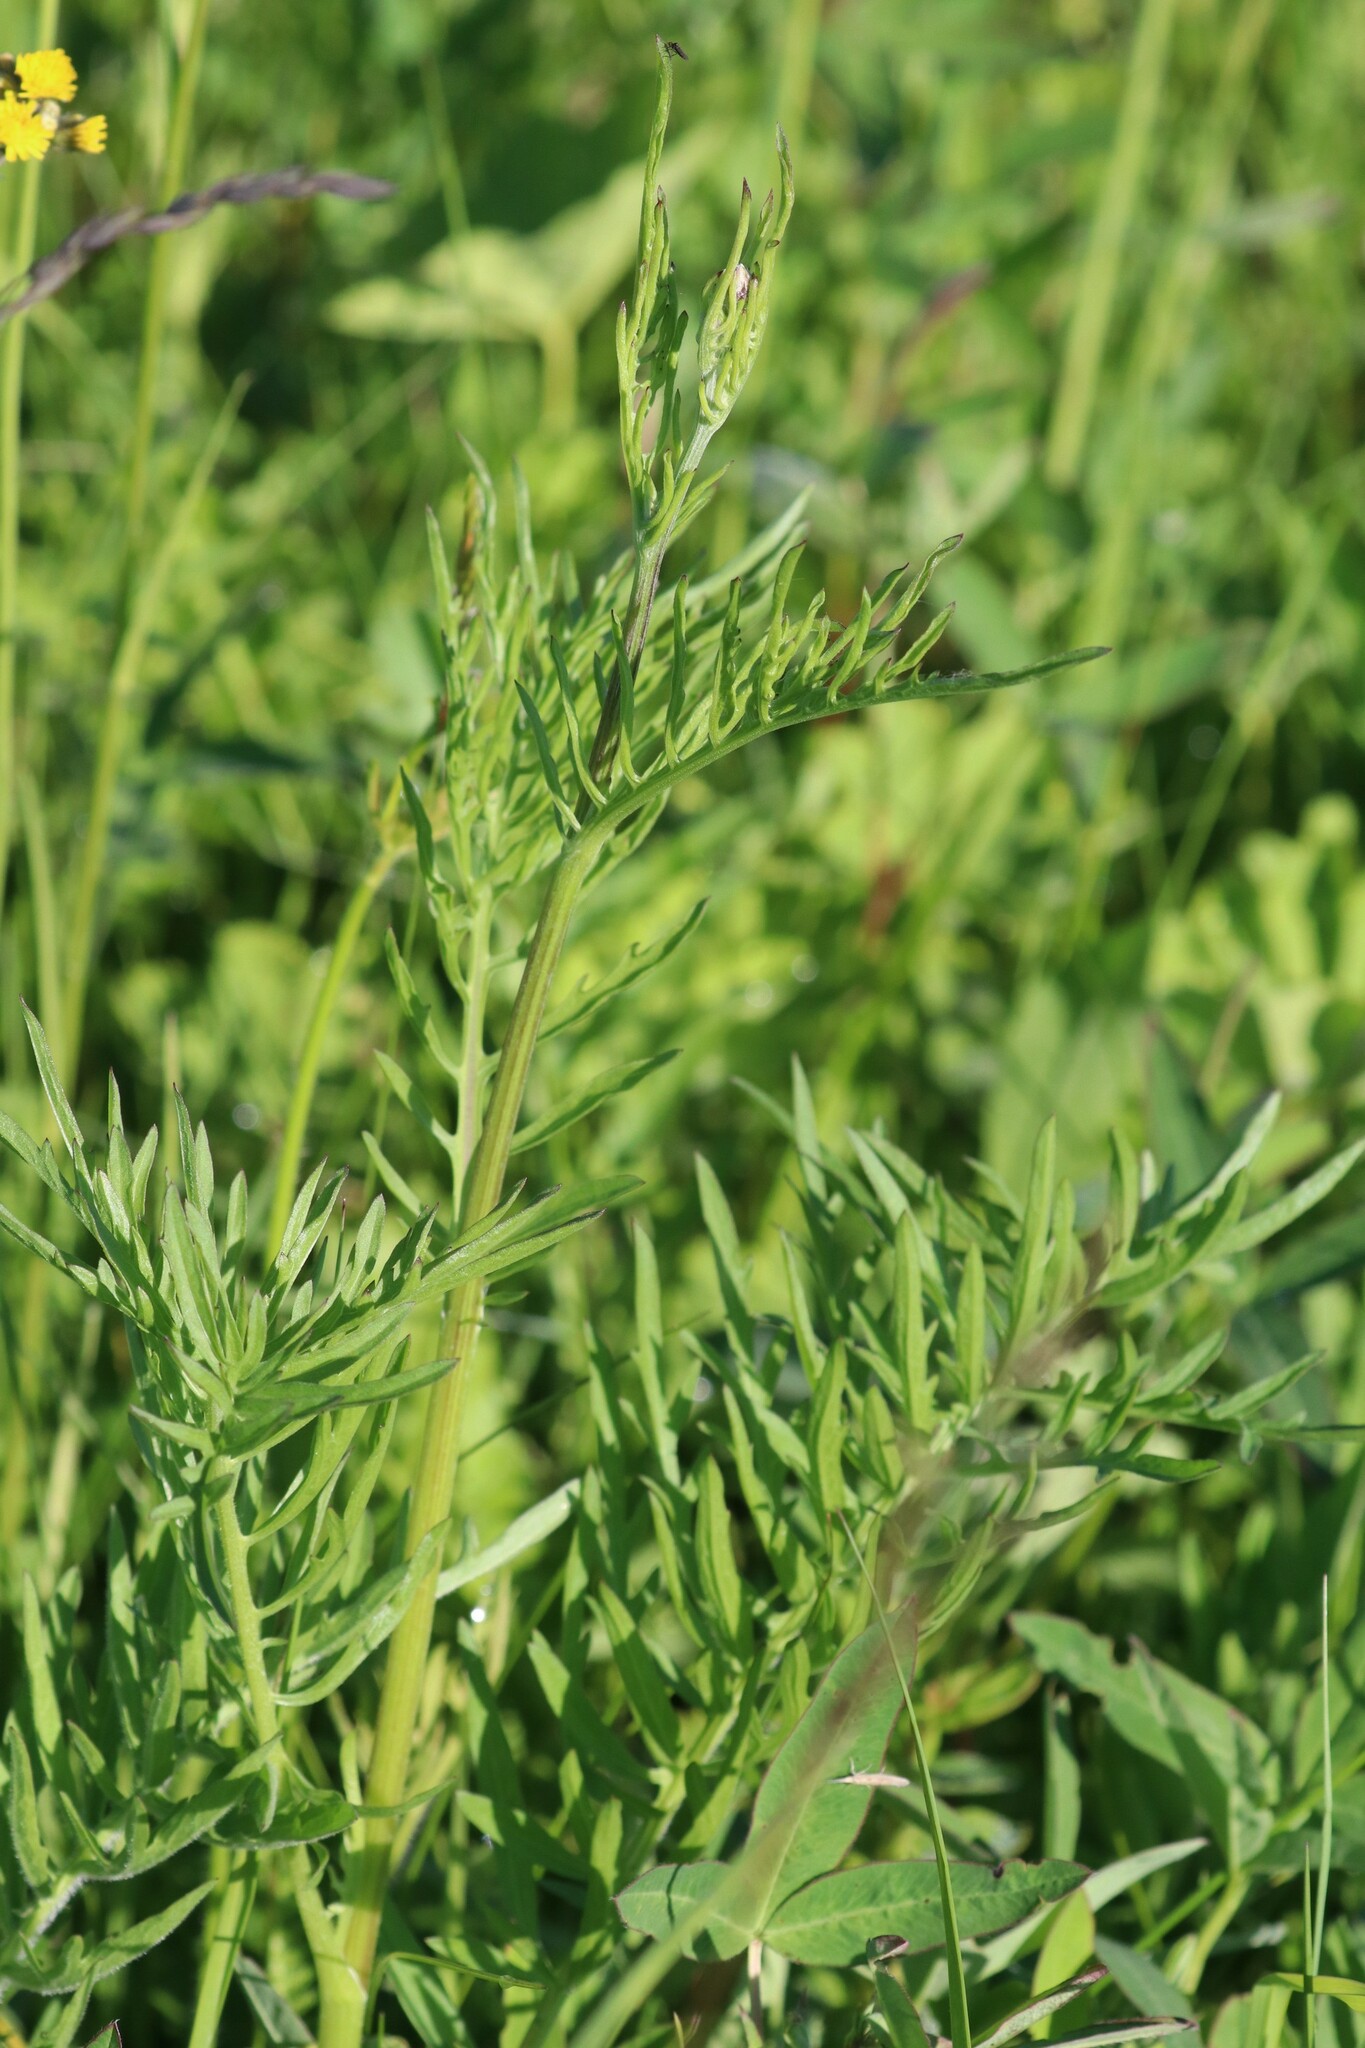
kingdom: Plantae
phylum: Tracheophyta
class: Magnoliopsida
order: Asterales
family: Asteraceae
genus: Centaurea
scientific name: Centaurea scabiosa
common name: Greater knapweed
